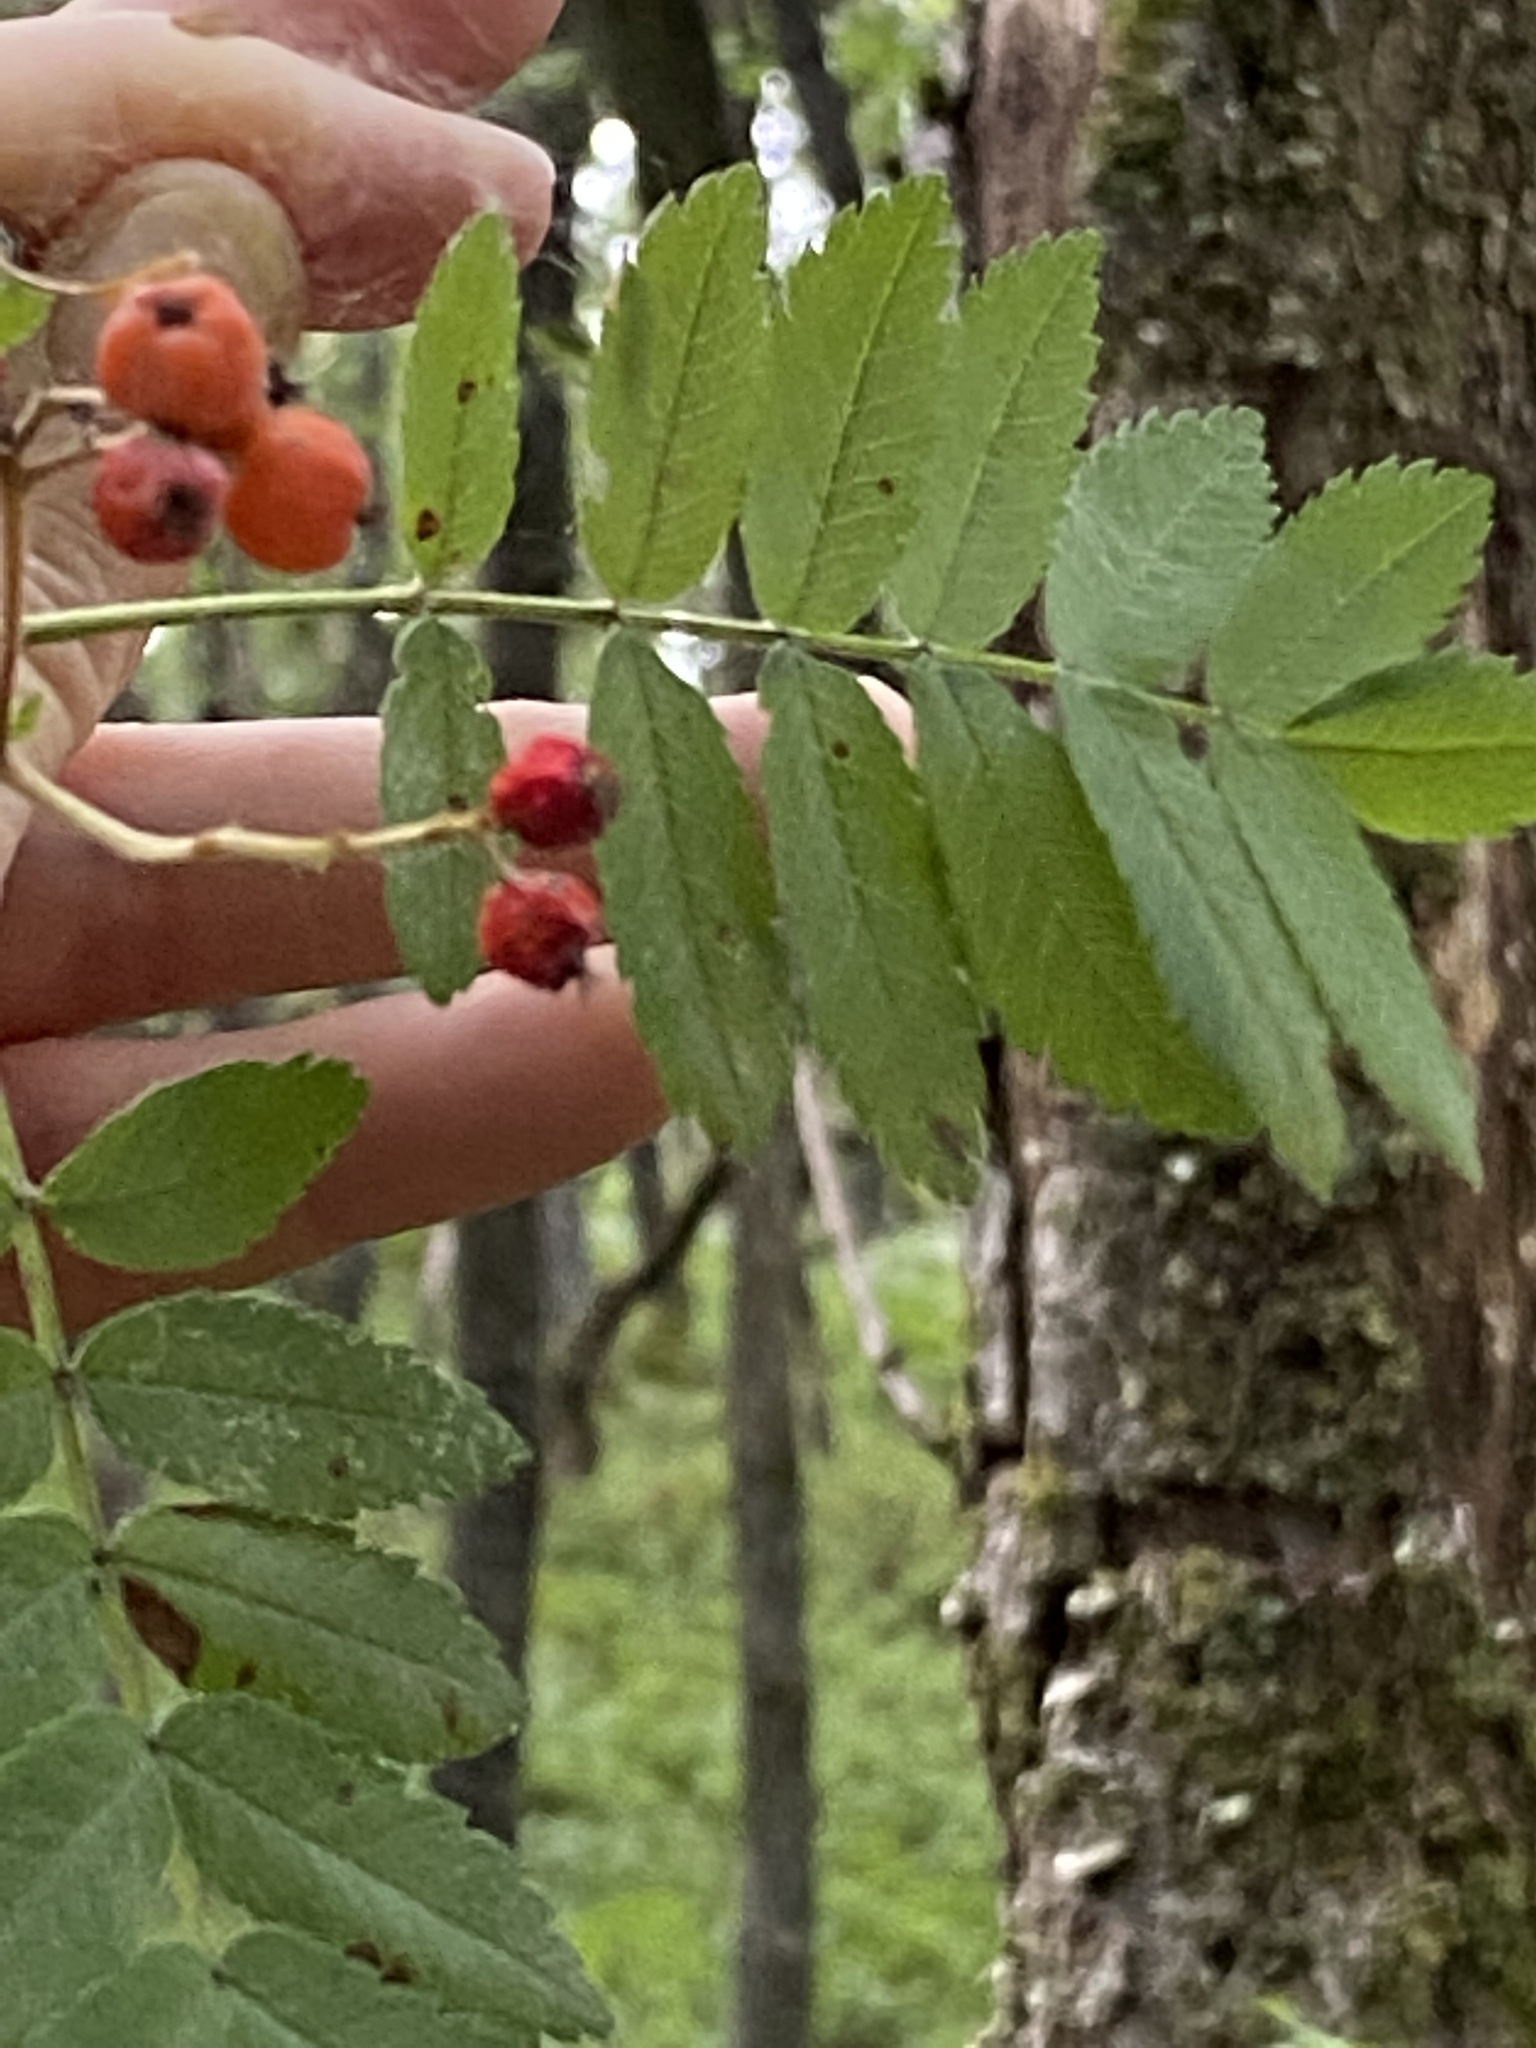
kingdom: Plantae
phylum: Tracheophyta
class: Magnoliopsida
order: Rosales
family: Rosaceae
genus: Sorbus
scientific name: Sorbus aucuparia
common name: Rowan
